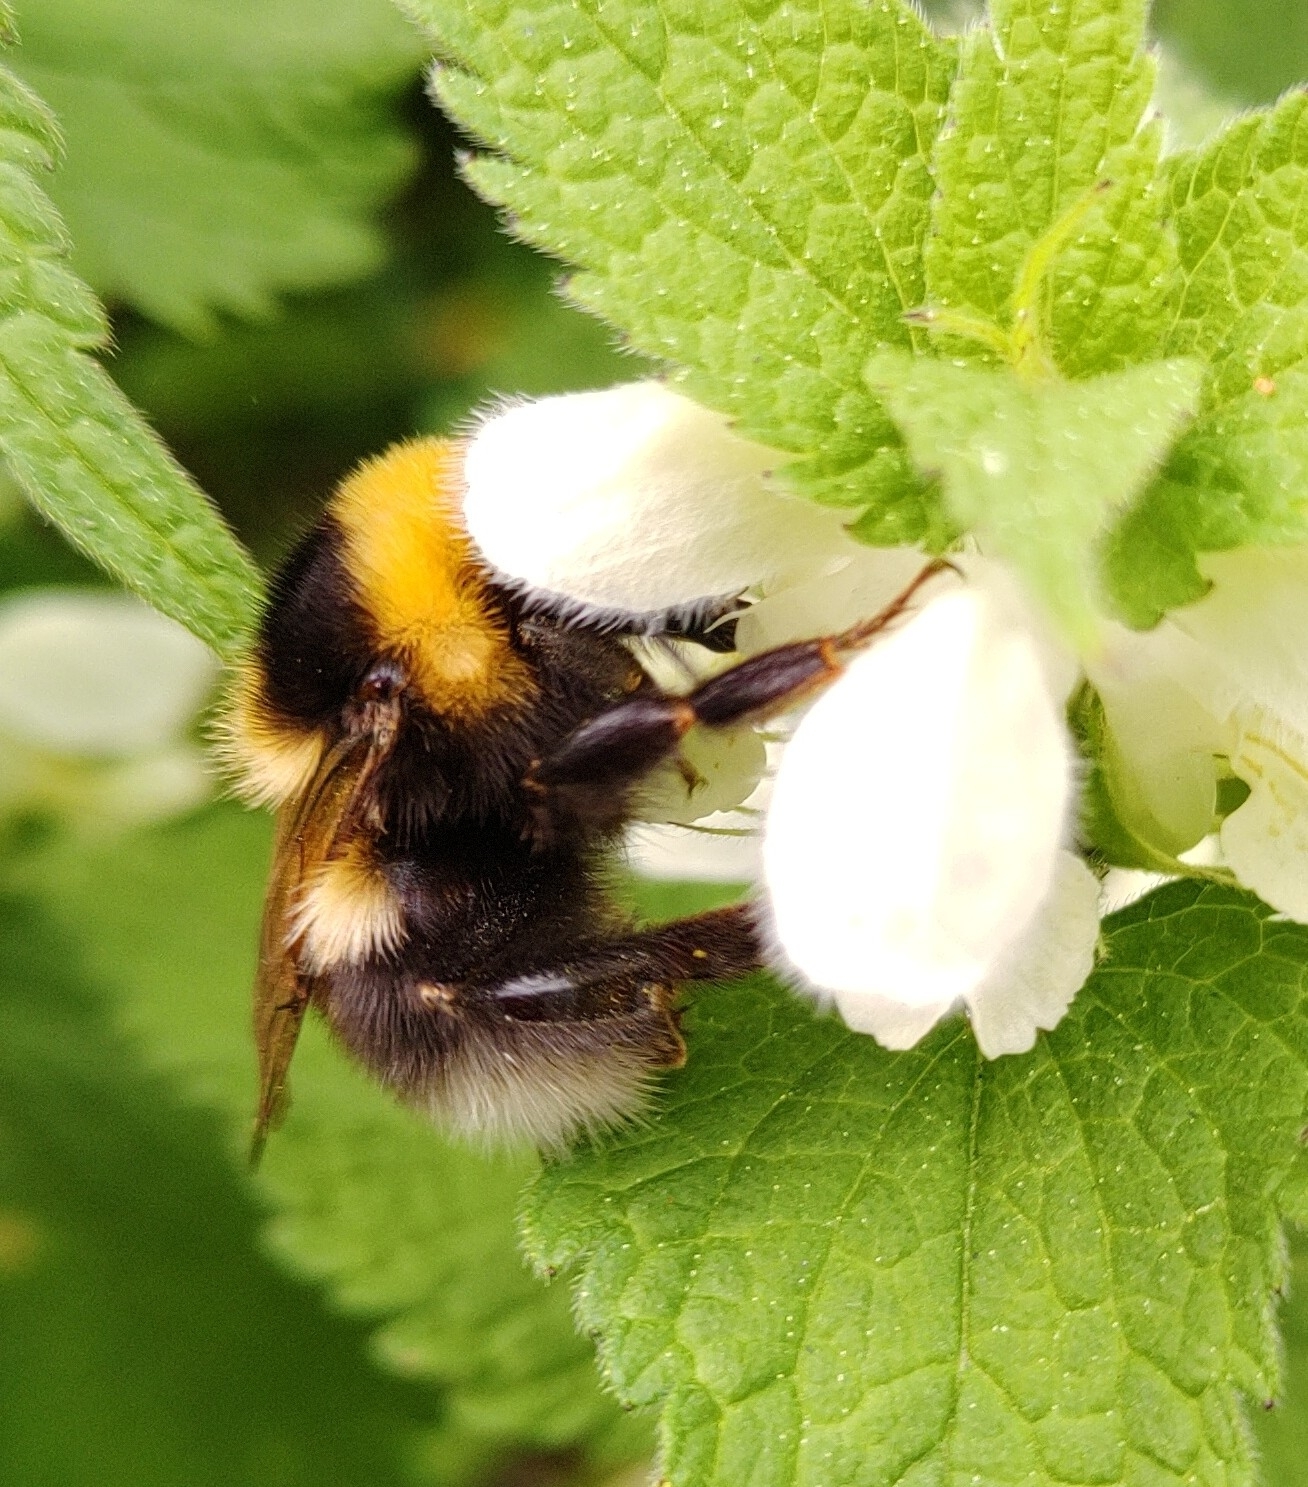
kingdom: Animalia
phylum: Arthropoda
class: Insecta
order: Hymenoptera
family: Apidae
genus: Bombus
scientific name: Bombus hortorum
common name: Garden bumblebee
